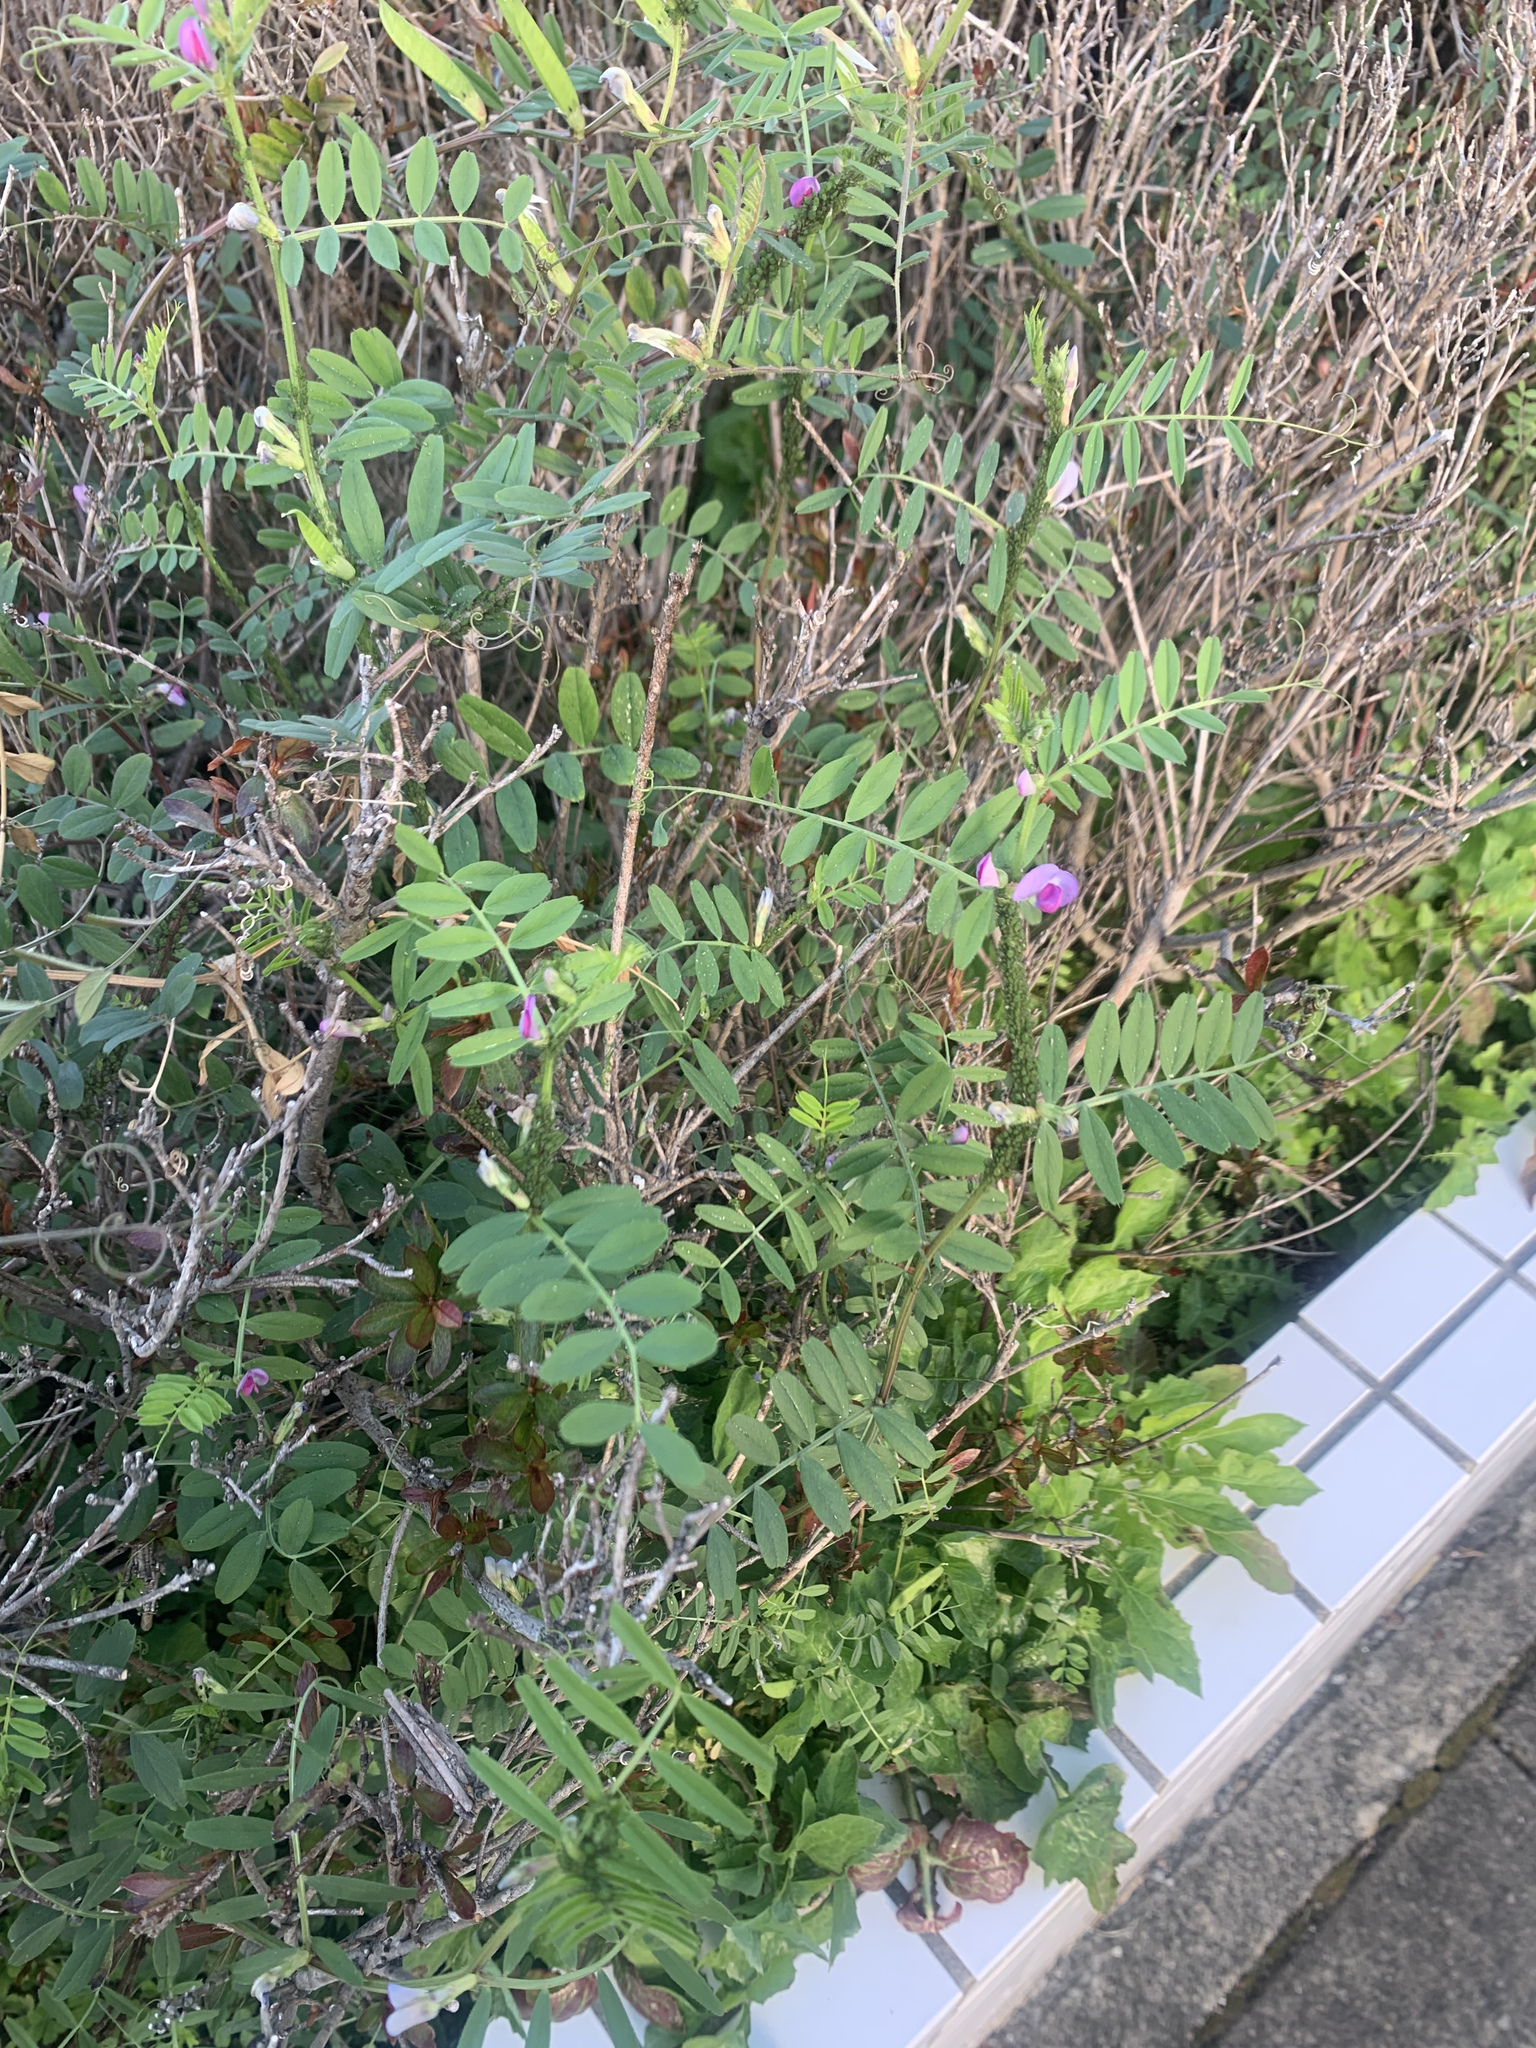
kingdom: Plantae
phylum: Tracheophyta
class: Magnoliopsida
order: Fabales
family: Fabaceae
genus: Vicia
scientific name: Vicia sativa
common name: Garden vetch
